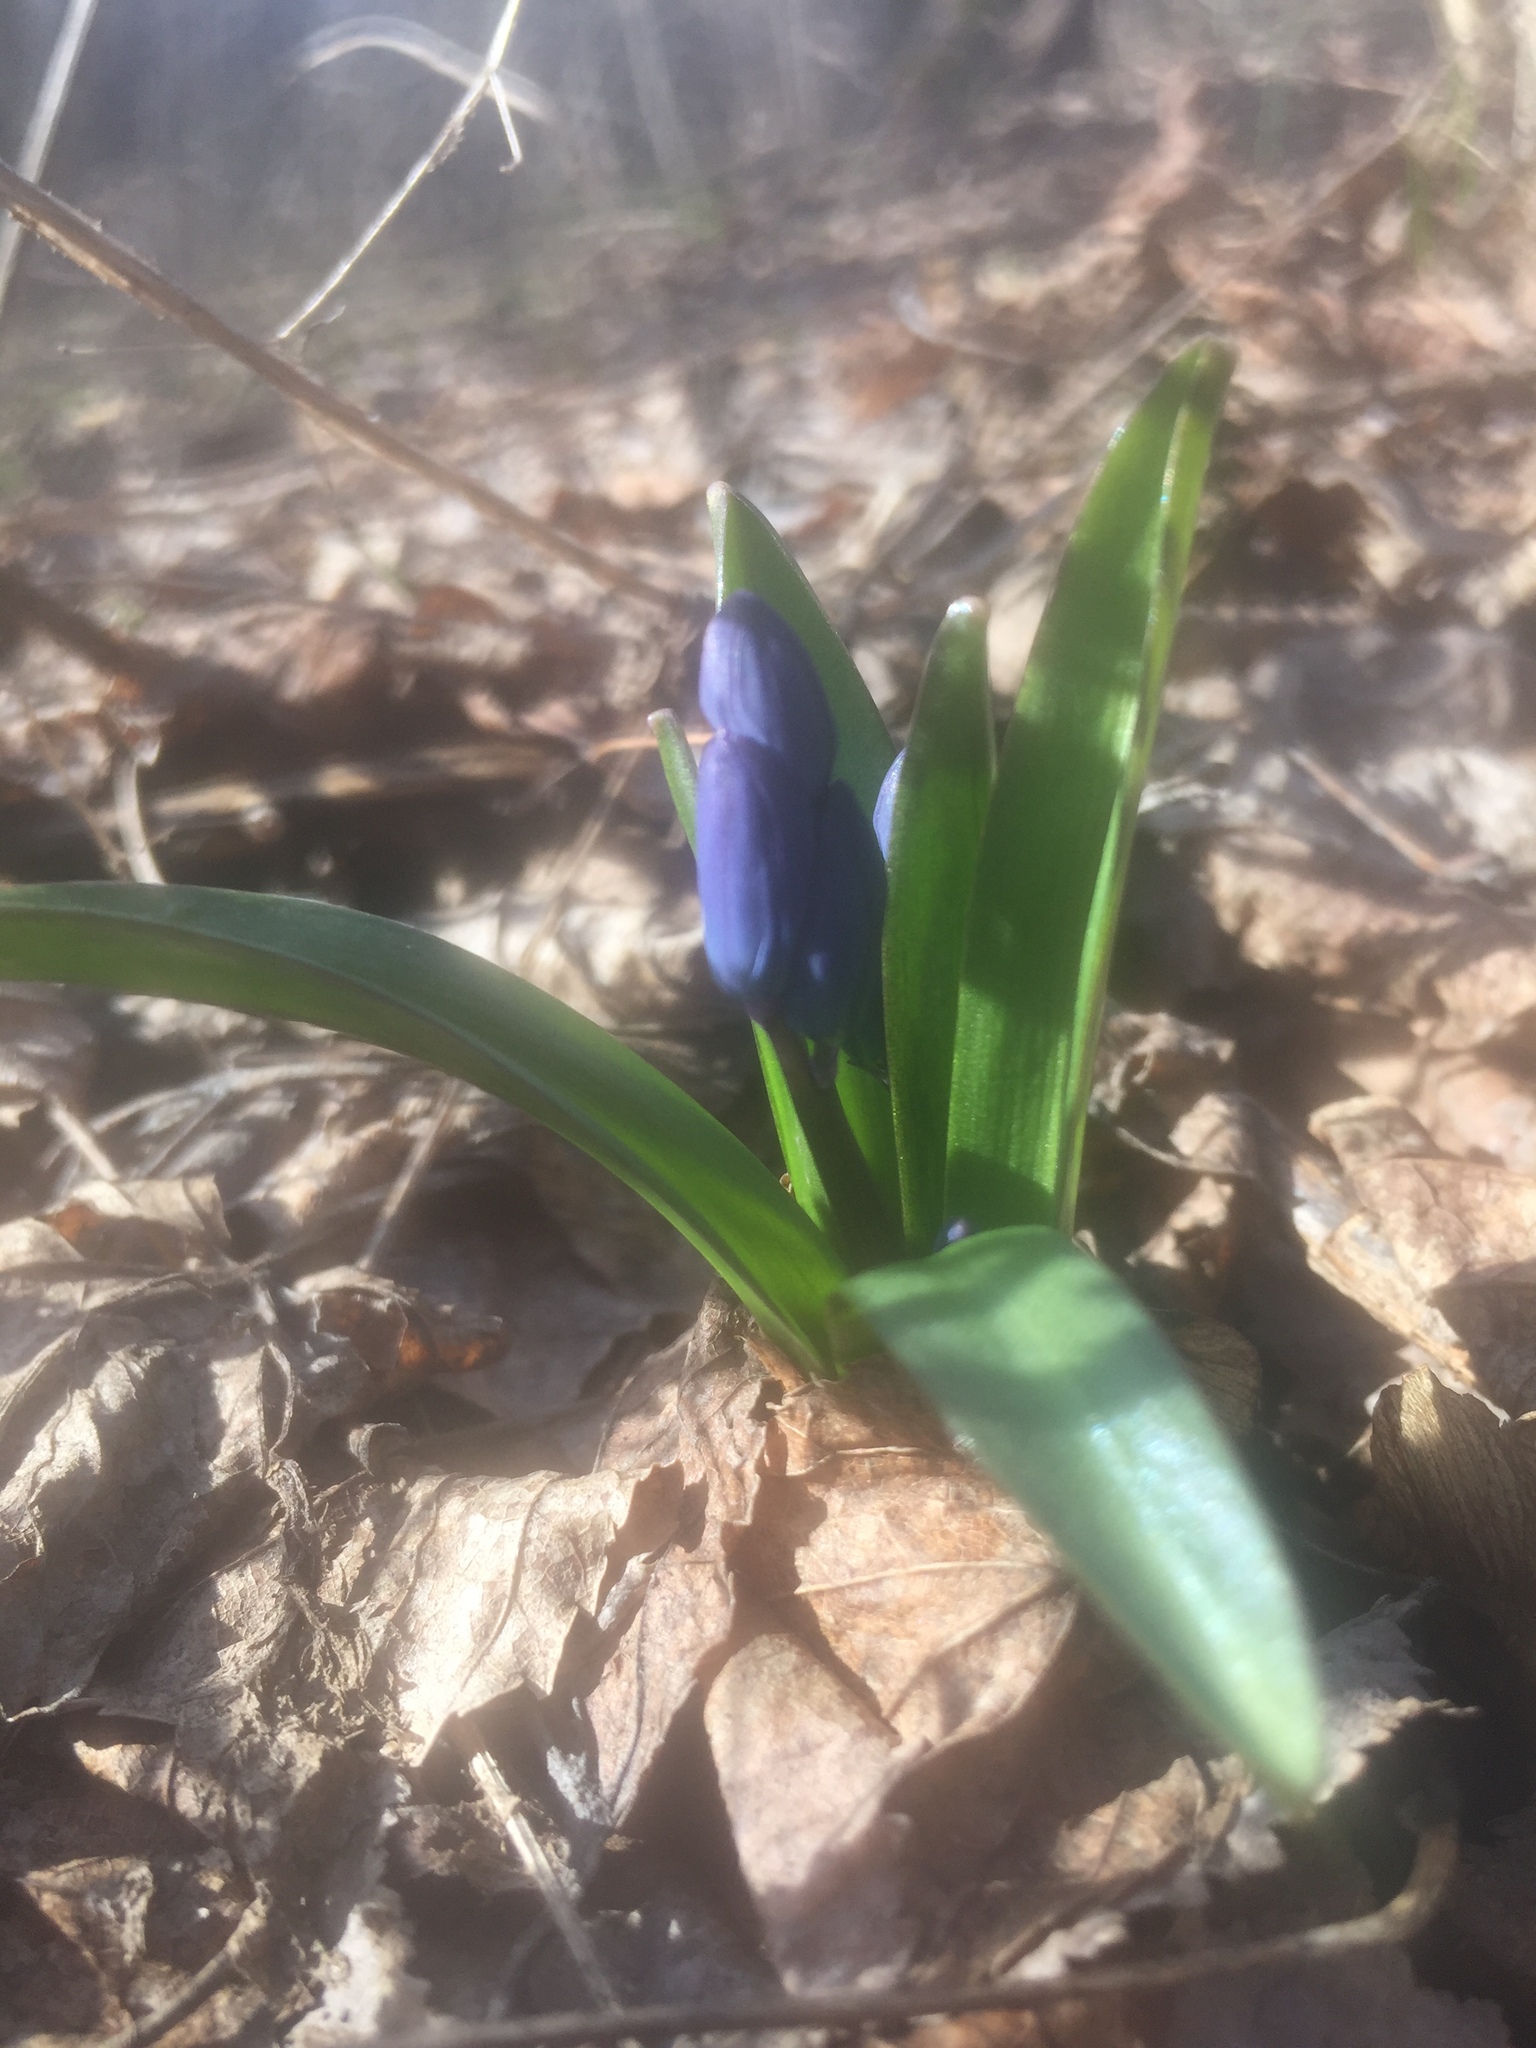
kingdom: Plantae
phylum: Tracheophyta
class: Liliopsida
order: Asparagales
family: Asparagaceae
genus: Scilla
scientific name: Scilla siberica
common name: Siberian squill
